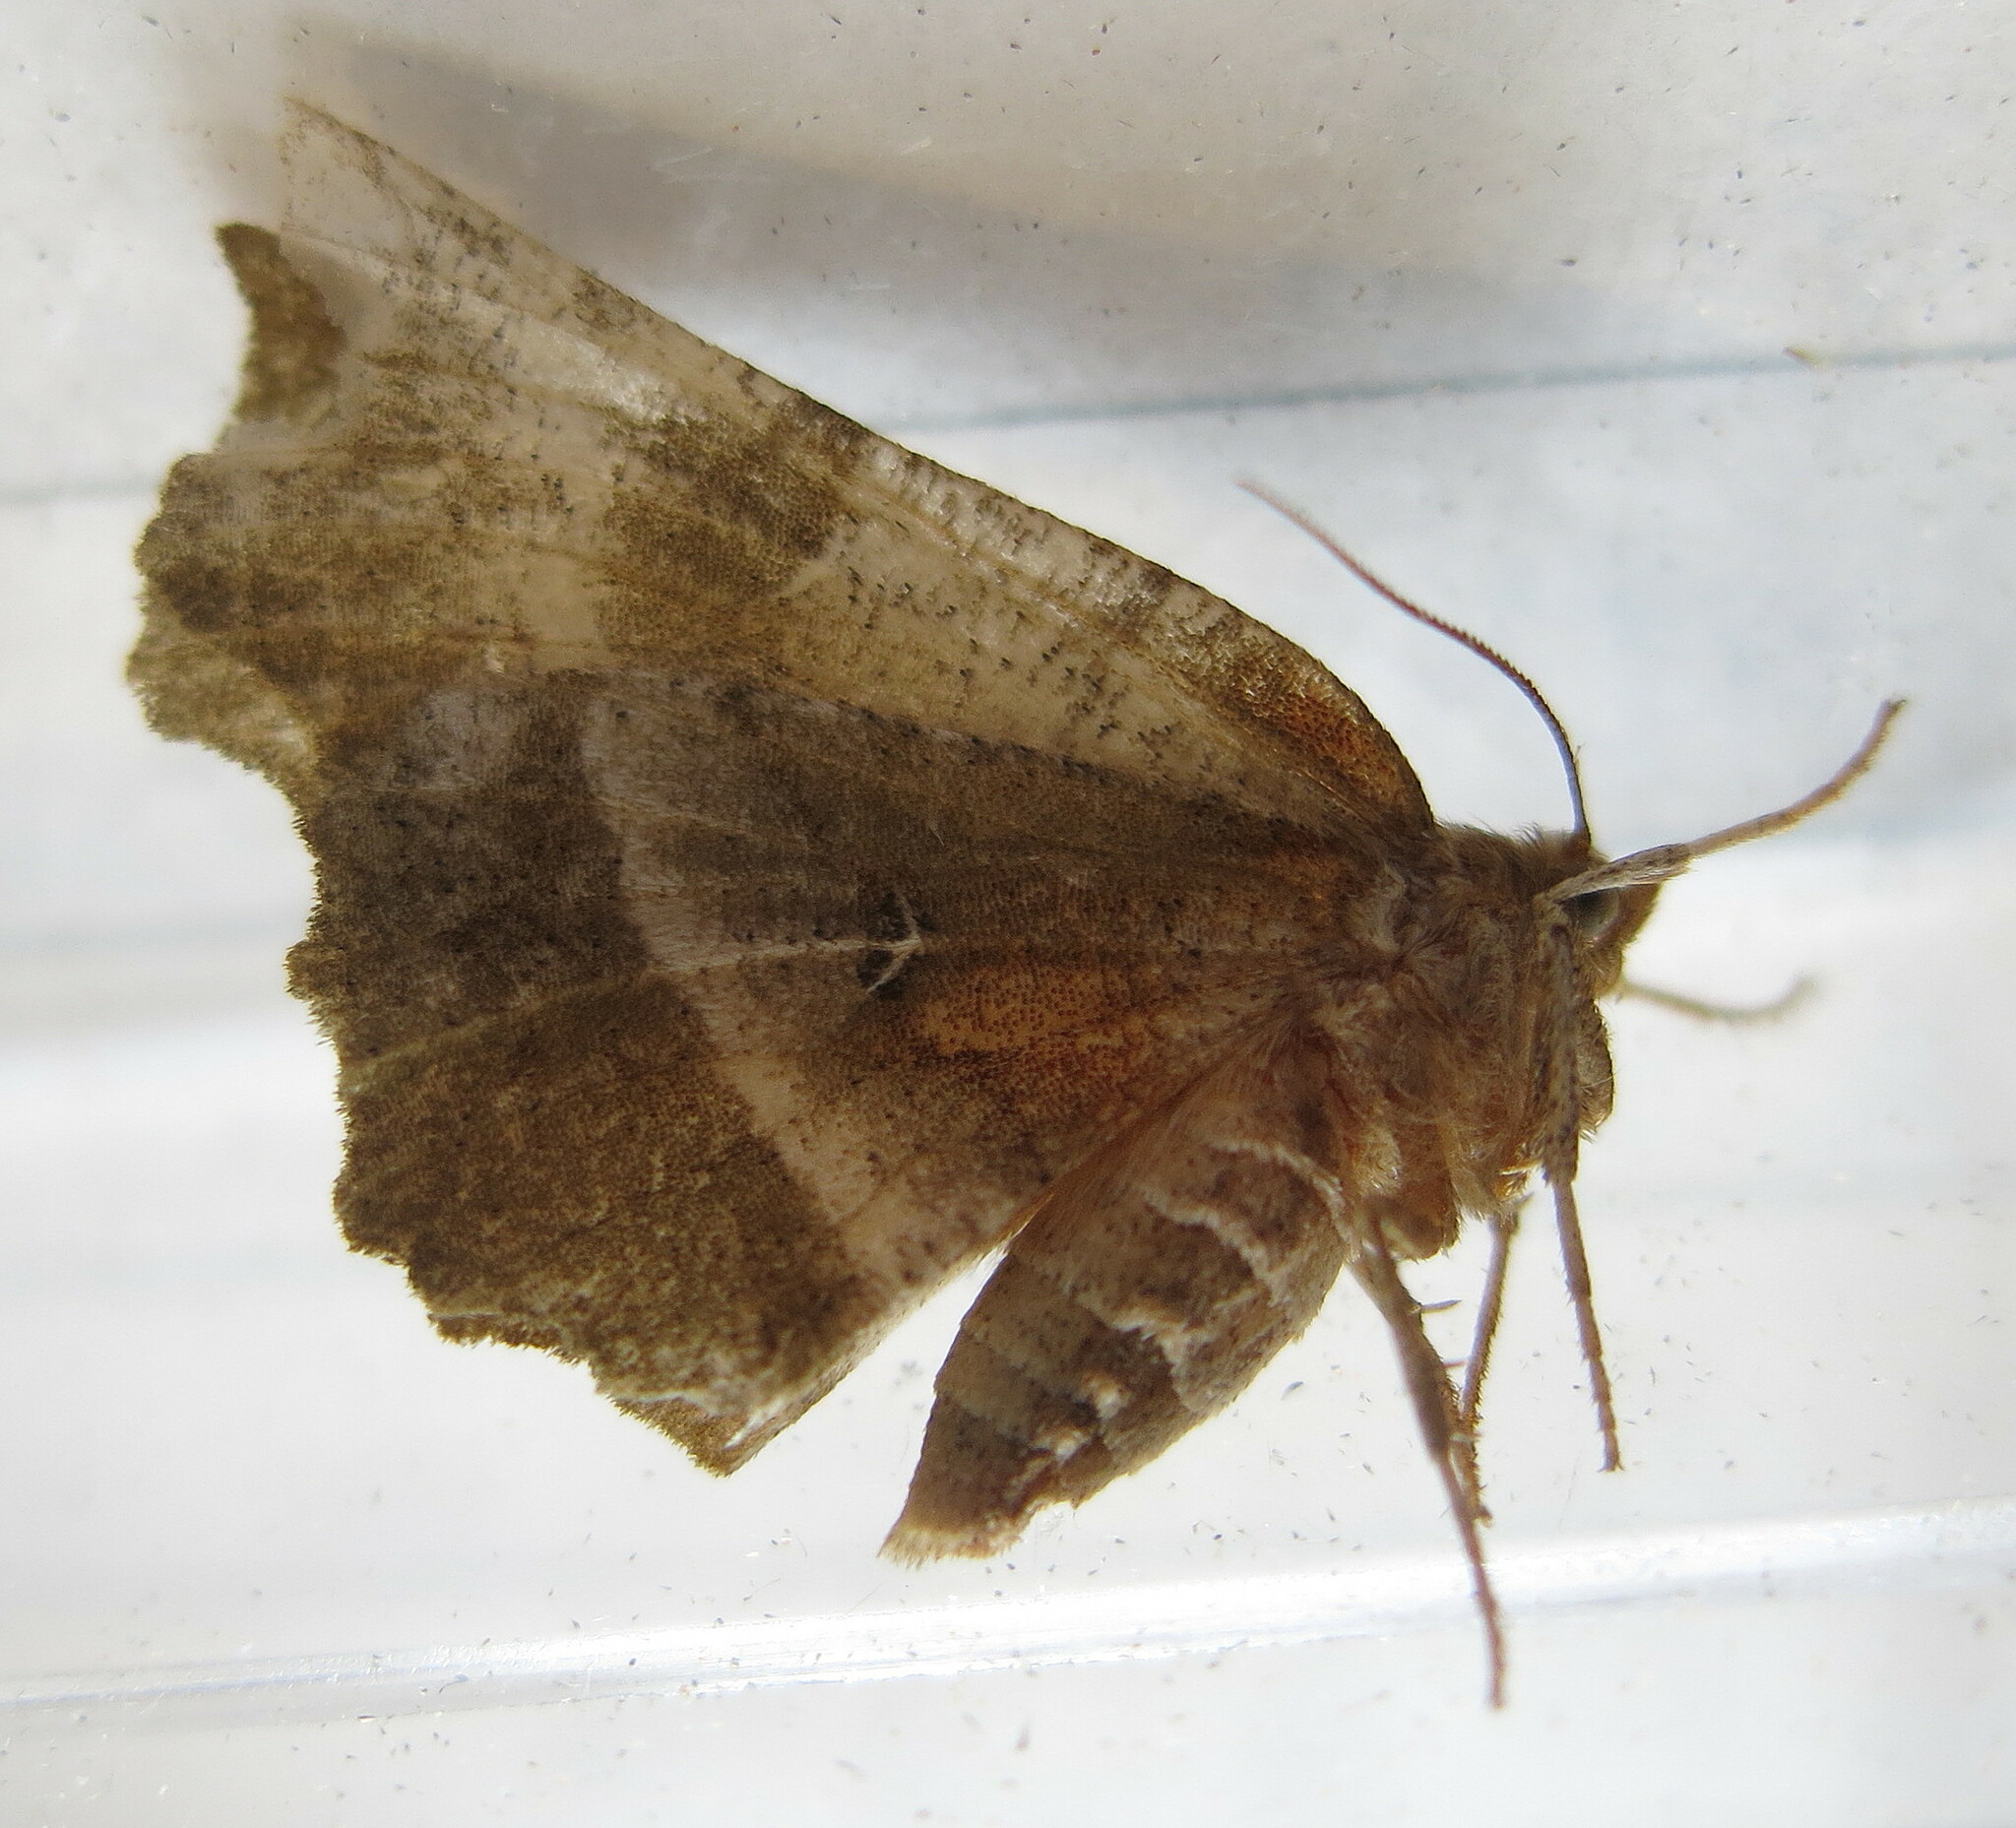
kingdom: Animalia
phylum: Arthropoda
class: Insecta
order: Lepidoptera
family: Geometridae
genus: Selenia
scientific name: Selenia dentaria
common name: Early thorn
